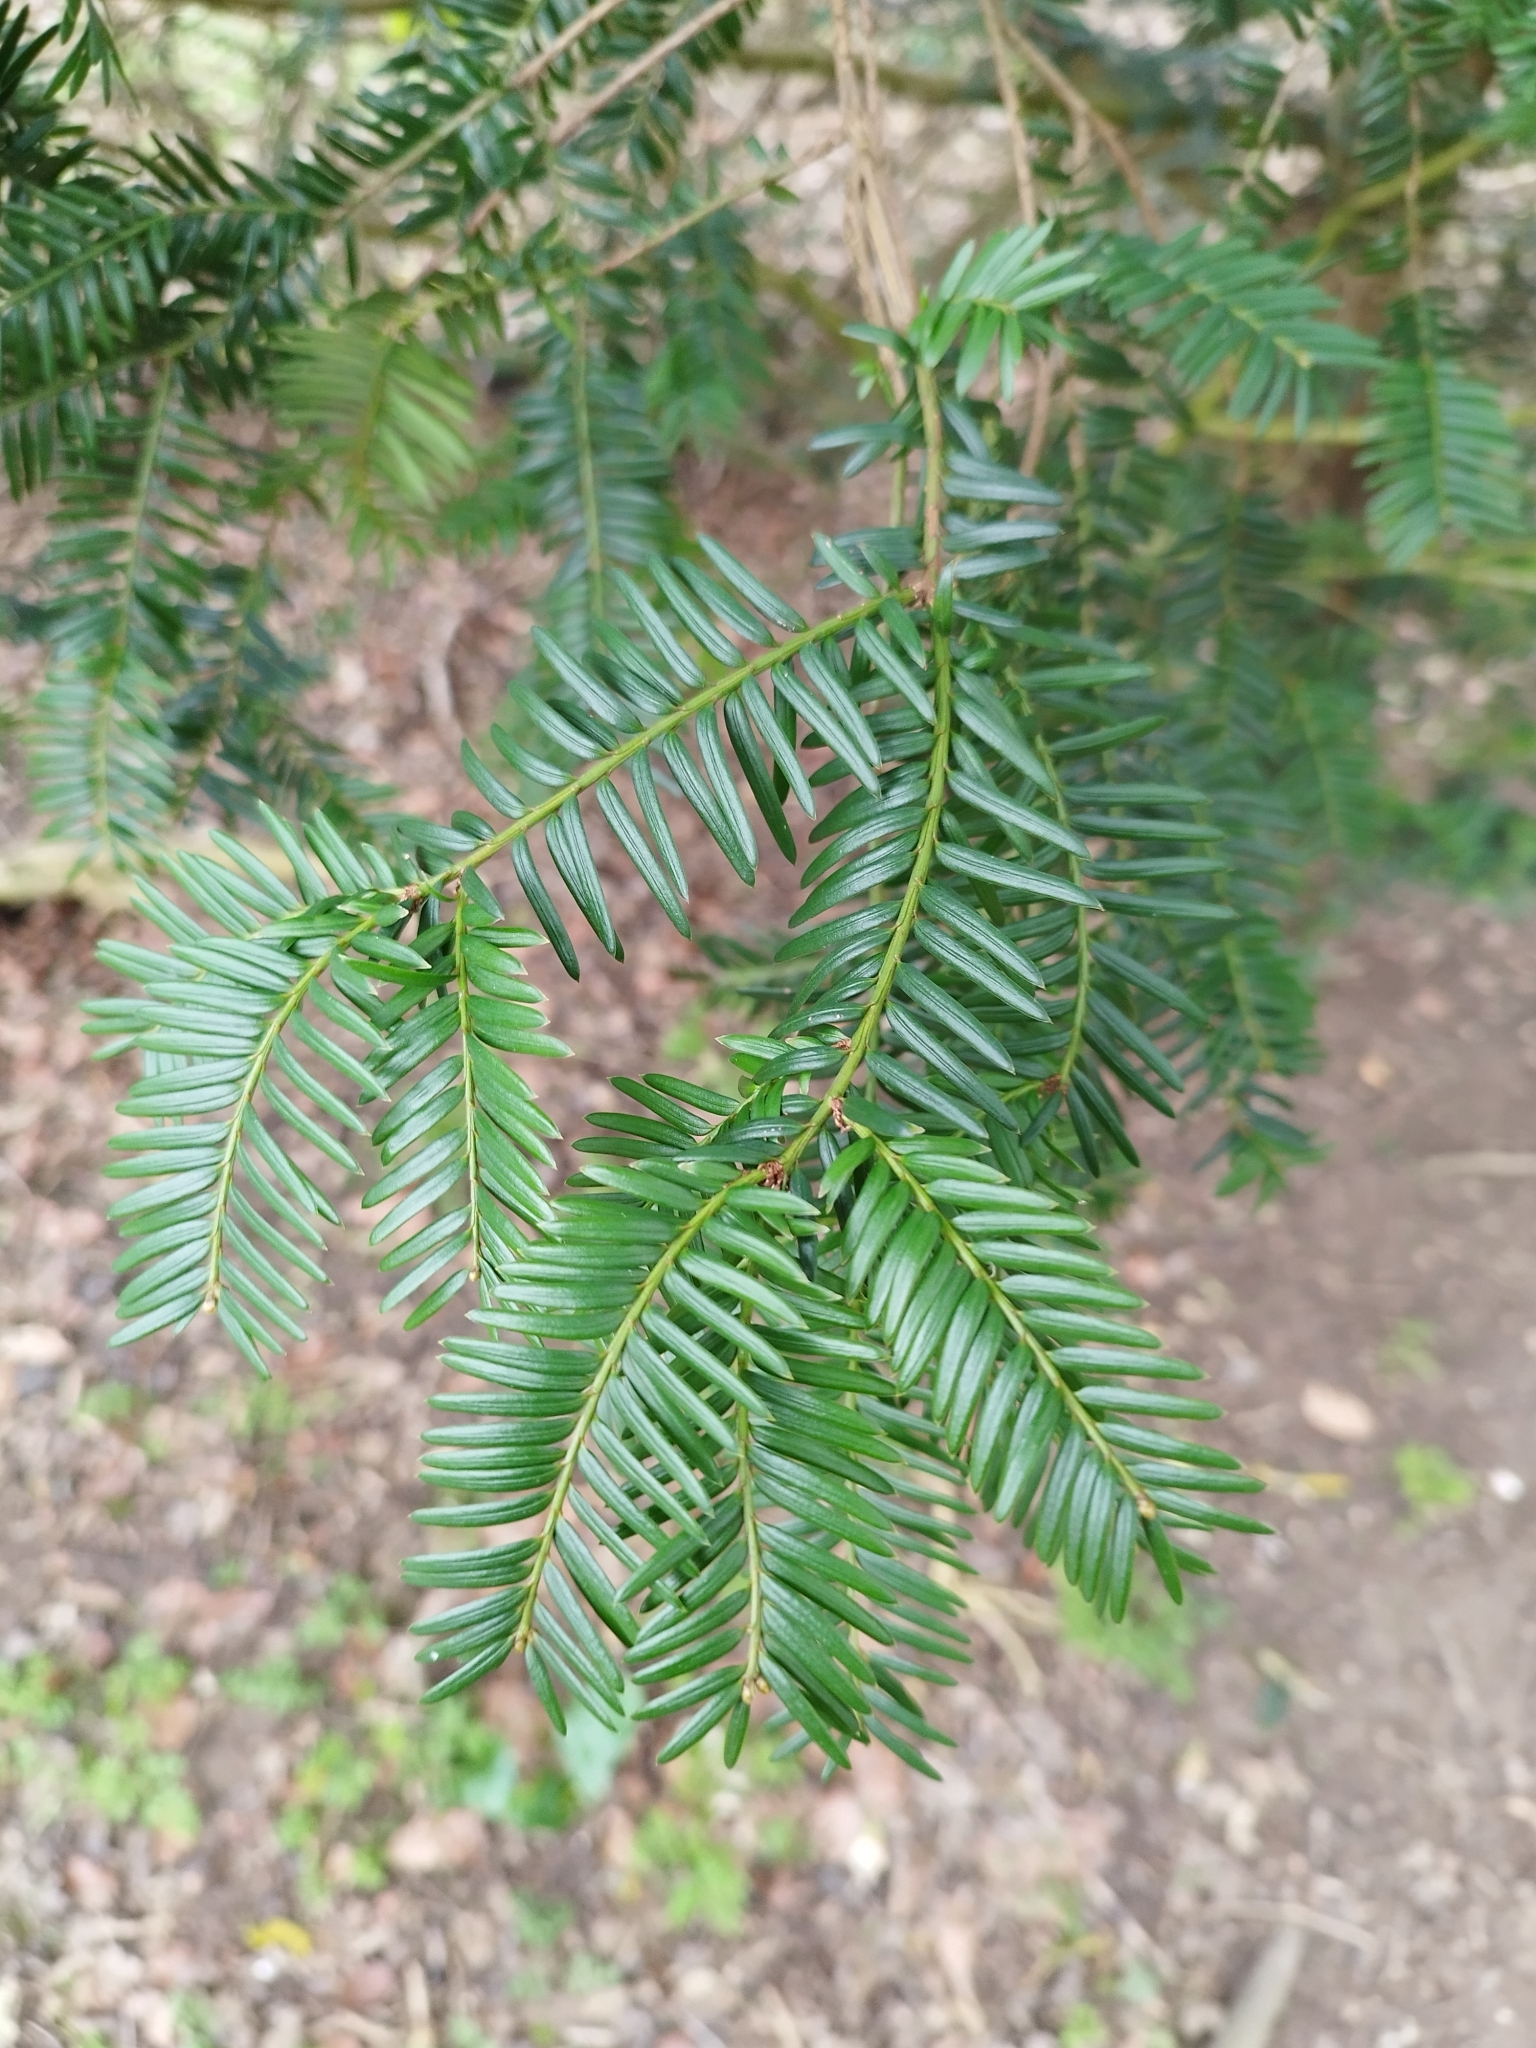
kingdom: Plantae
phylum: Tracheophyta
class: Pinopsida
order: Pinales
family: Taxaceae
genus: Taxus
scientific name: Taxus baccata
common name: Yew
